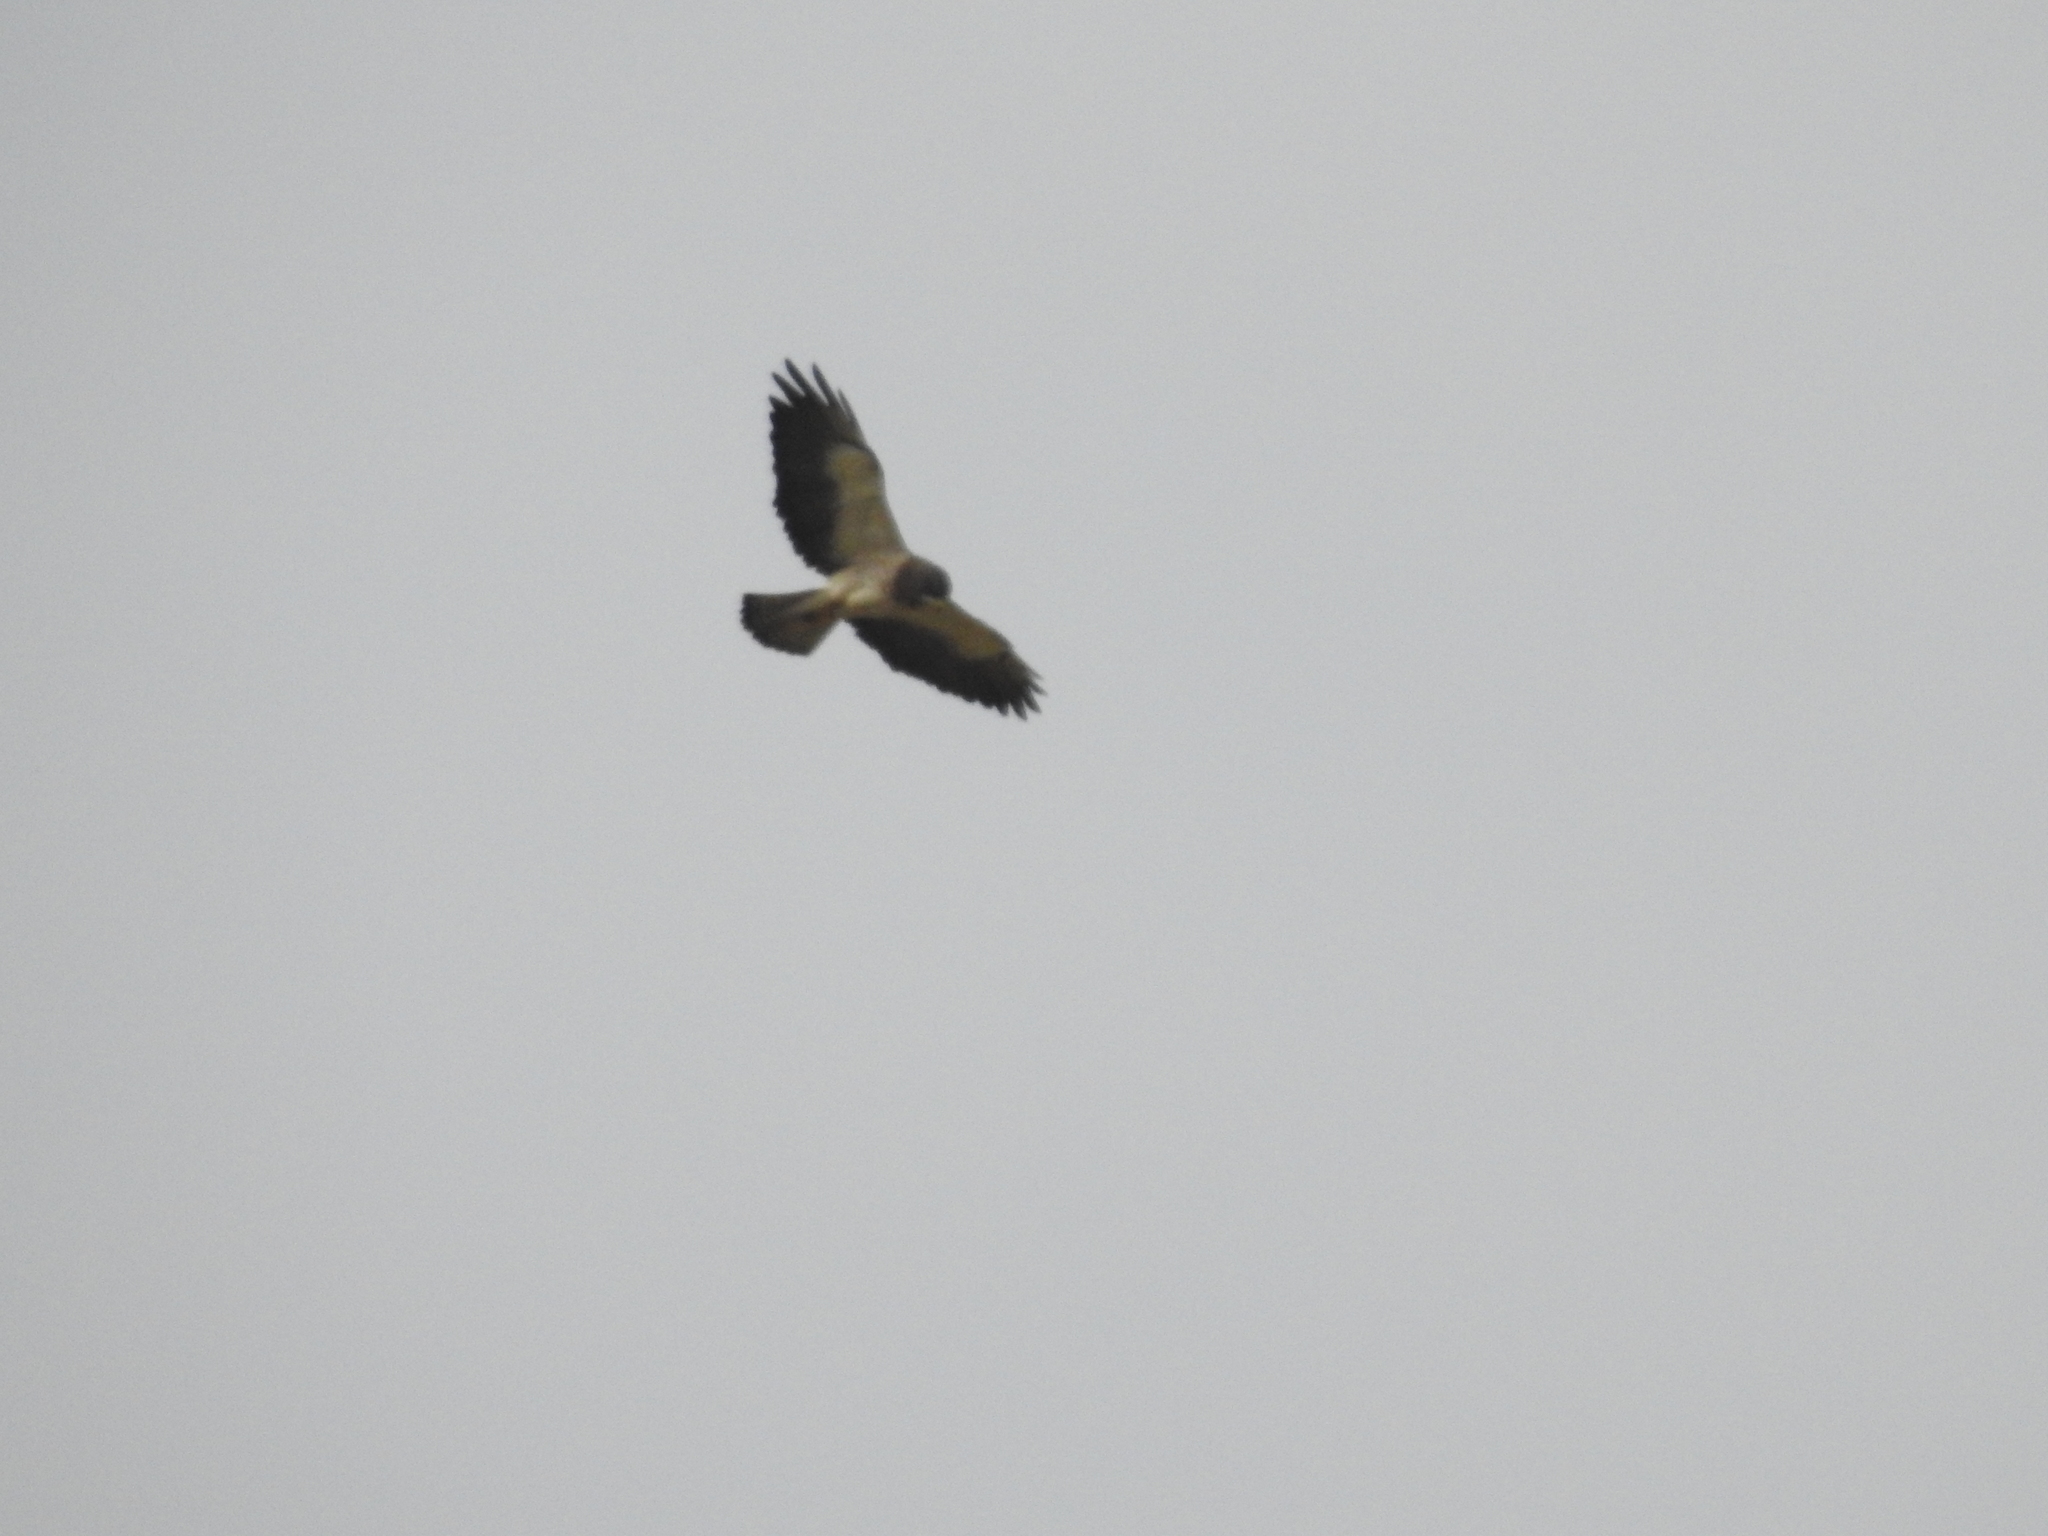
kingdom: Animalia
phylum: Chordata
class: Aves
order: Accipitriformes
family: Accipitridae
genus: Buteo
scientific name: Buteo swainsoni
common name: Swainson's hawk
